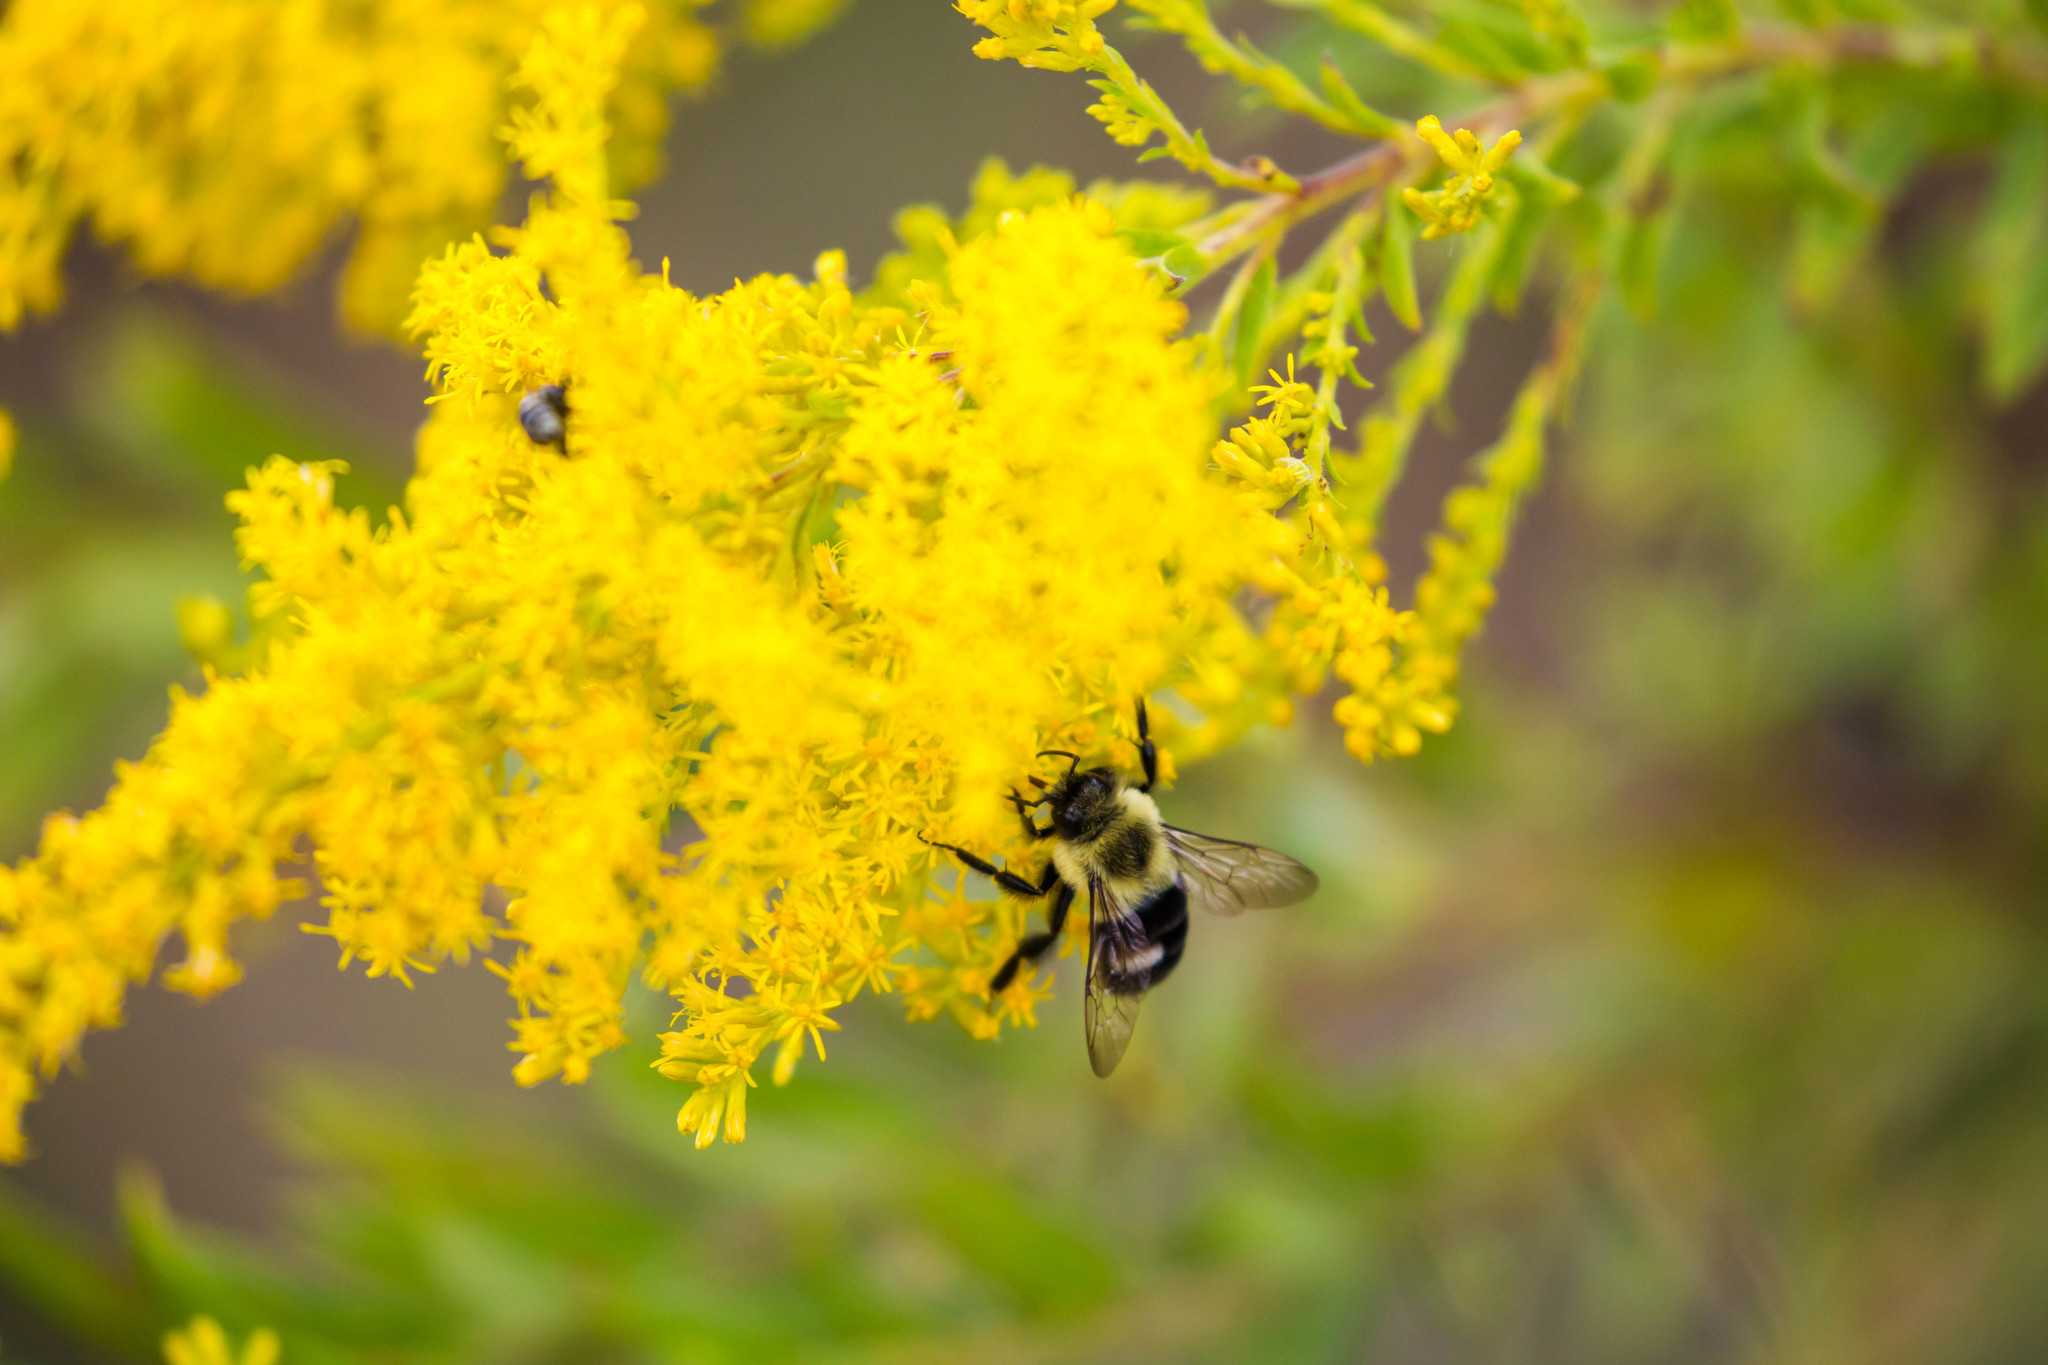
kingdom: Animalia
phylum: Arthropoda
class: Insecta
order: Hymenoptera
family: Apidae
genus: Bombus
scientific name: Bombus impatiens
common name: Common eastern bumble bee
